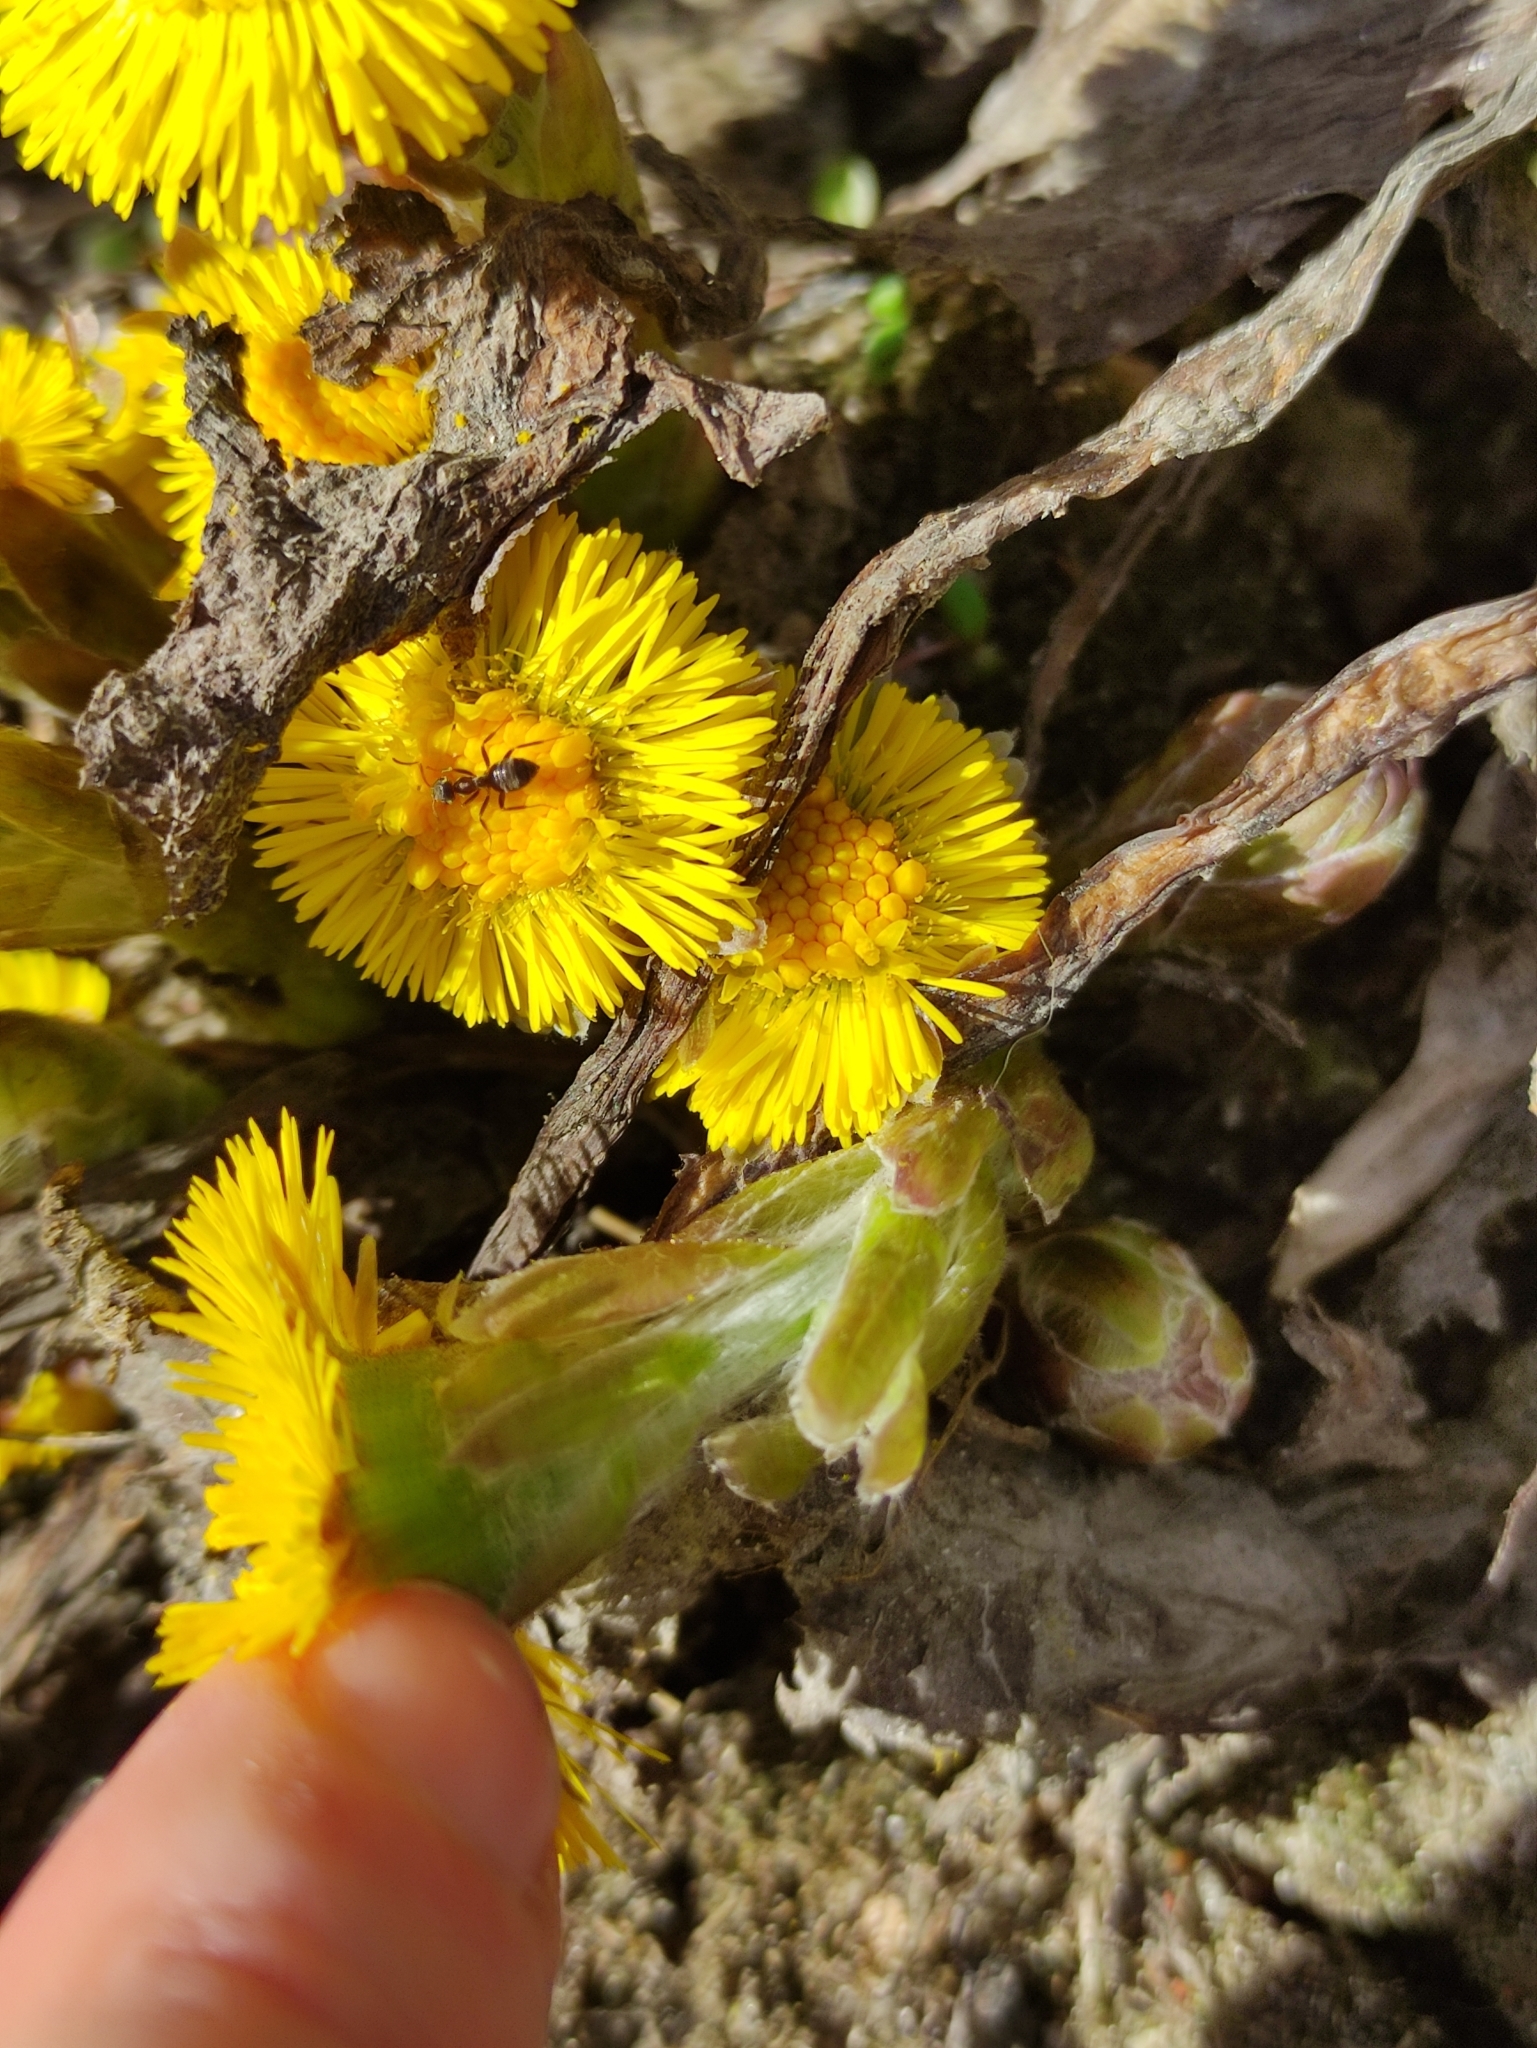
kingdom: Plantae
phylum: Tracheophyta
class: Magnoliopsida
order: Asterales
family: Asteraceae
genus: Tussilago
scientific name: Tussilago farfara
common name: Coltsfoot
